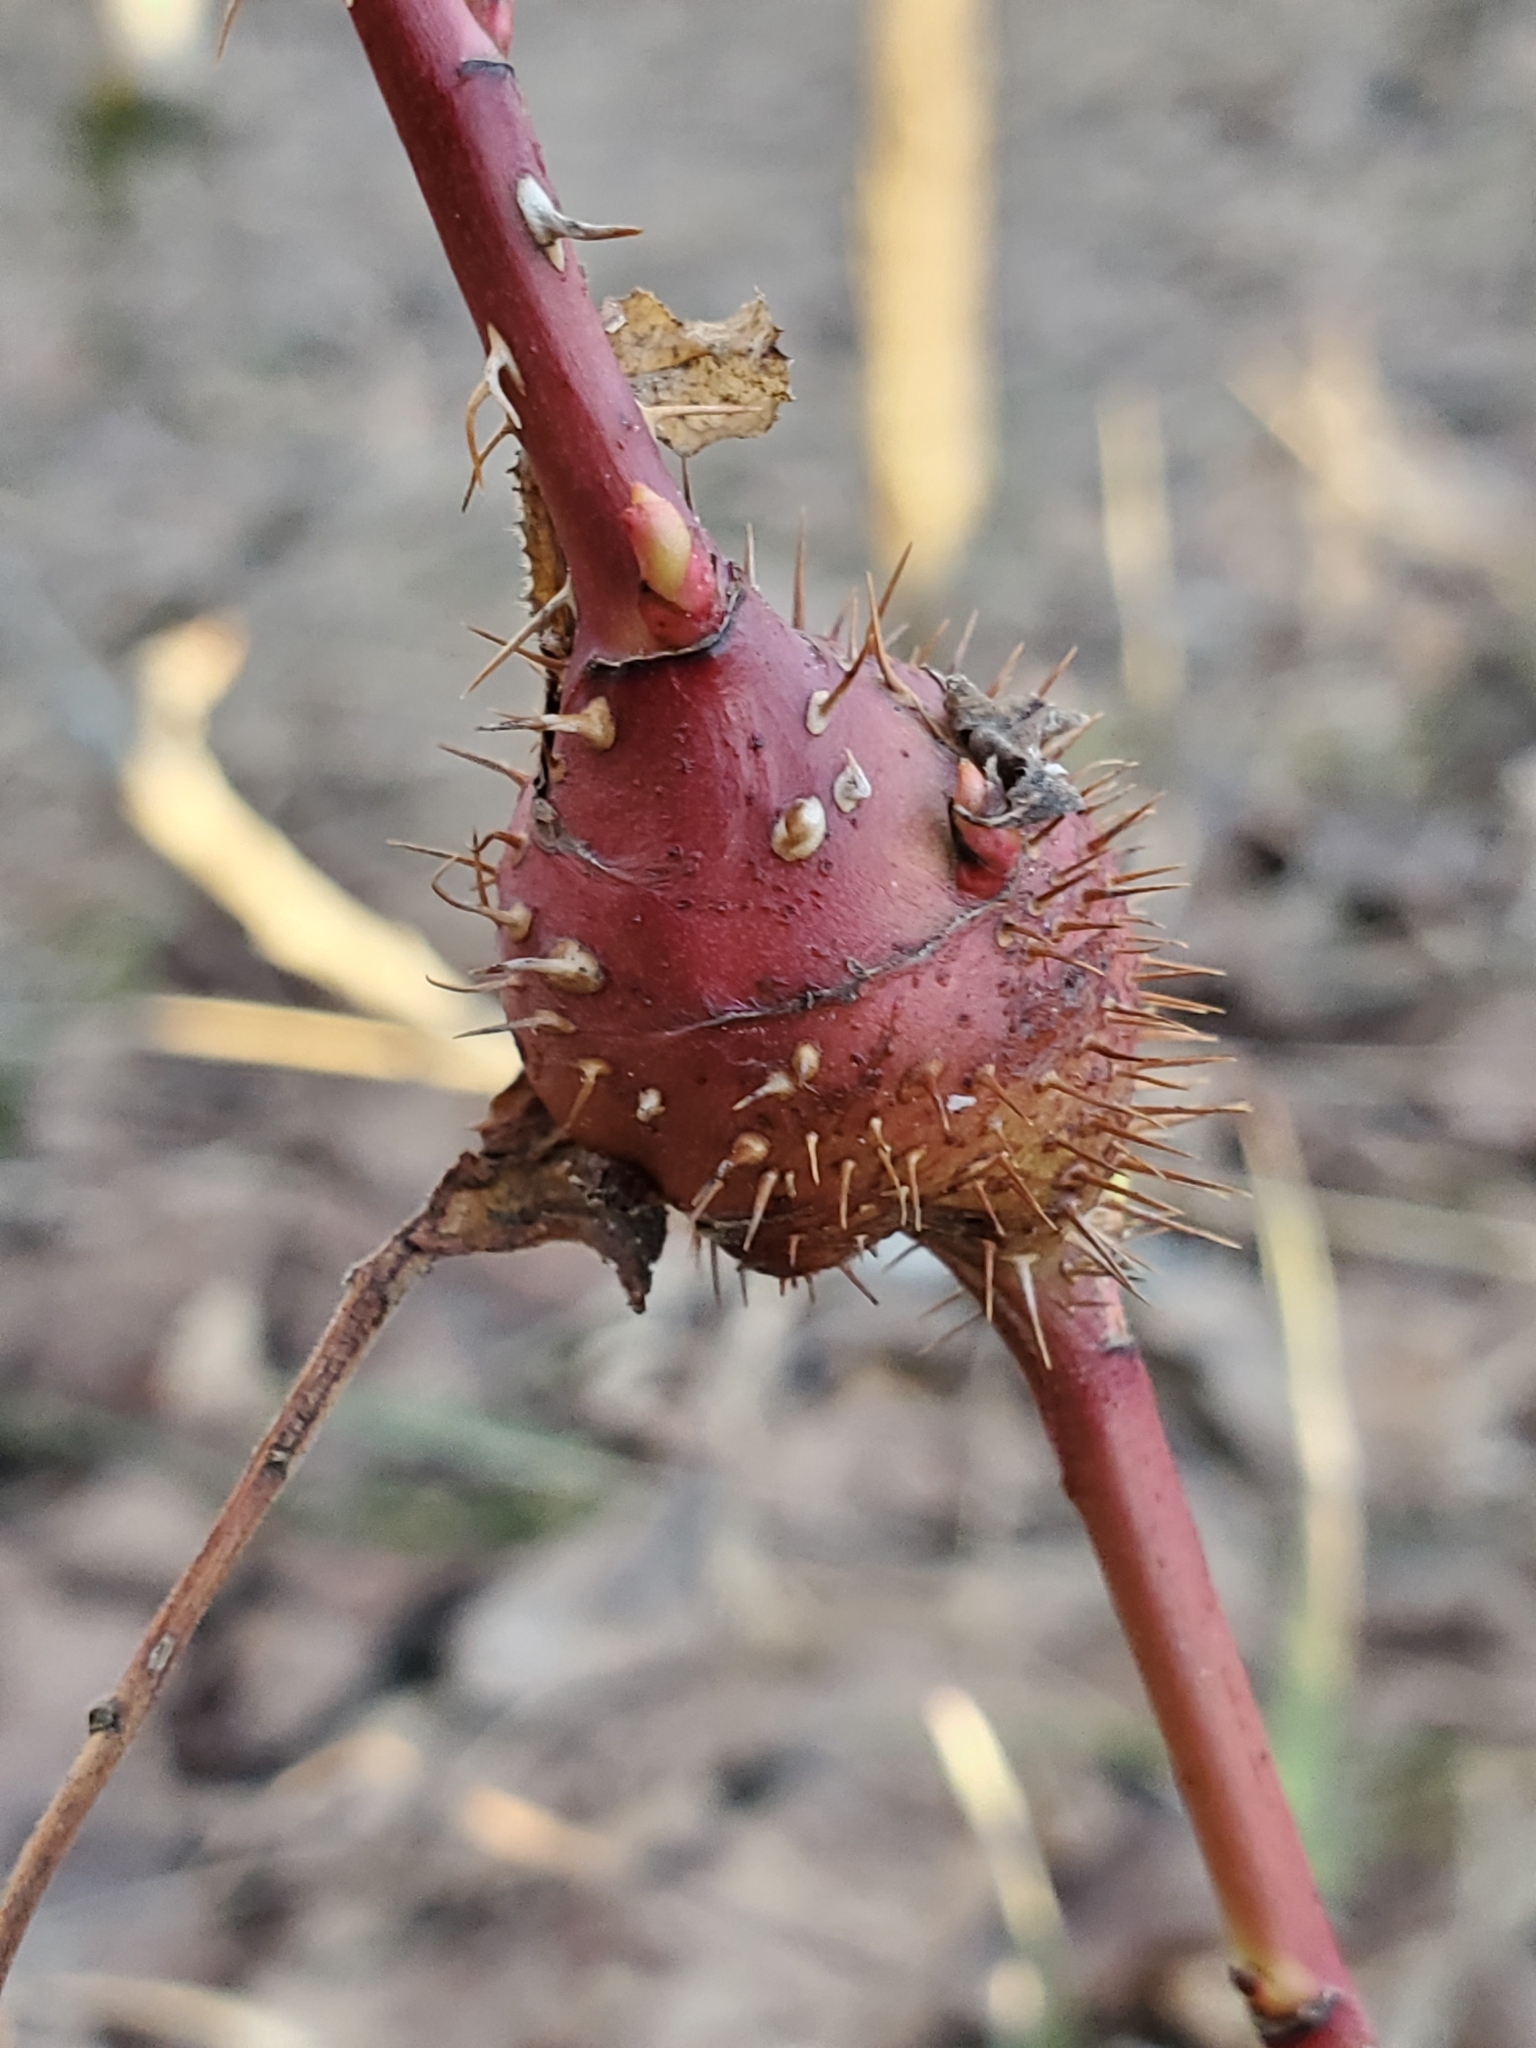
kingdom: Animalia
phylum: Arthropoda
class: Insecta
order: Hymenoptera
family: Cynipidae
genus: Diplolepis
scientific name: Diplolepis spinosa
